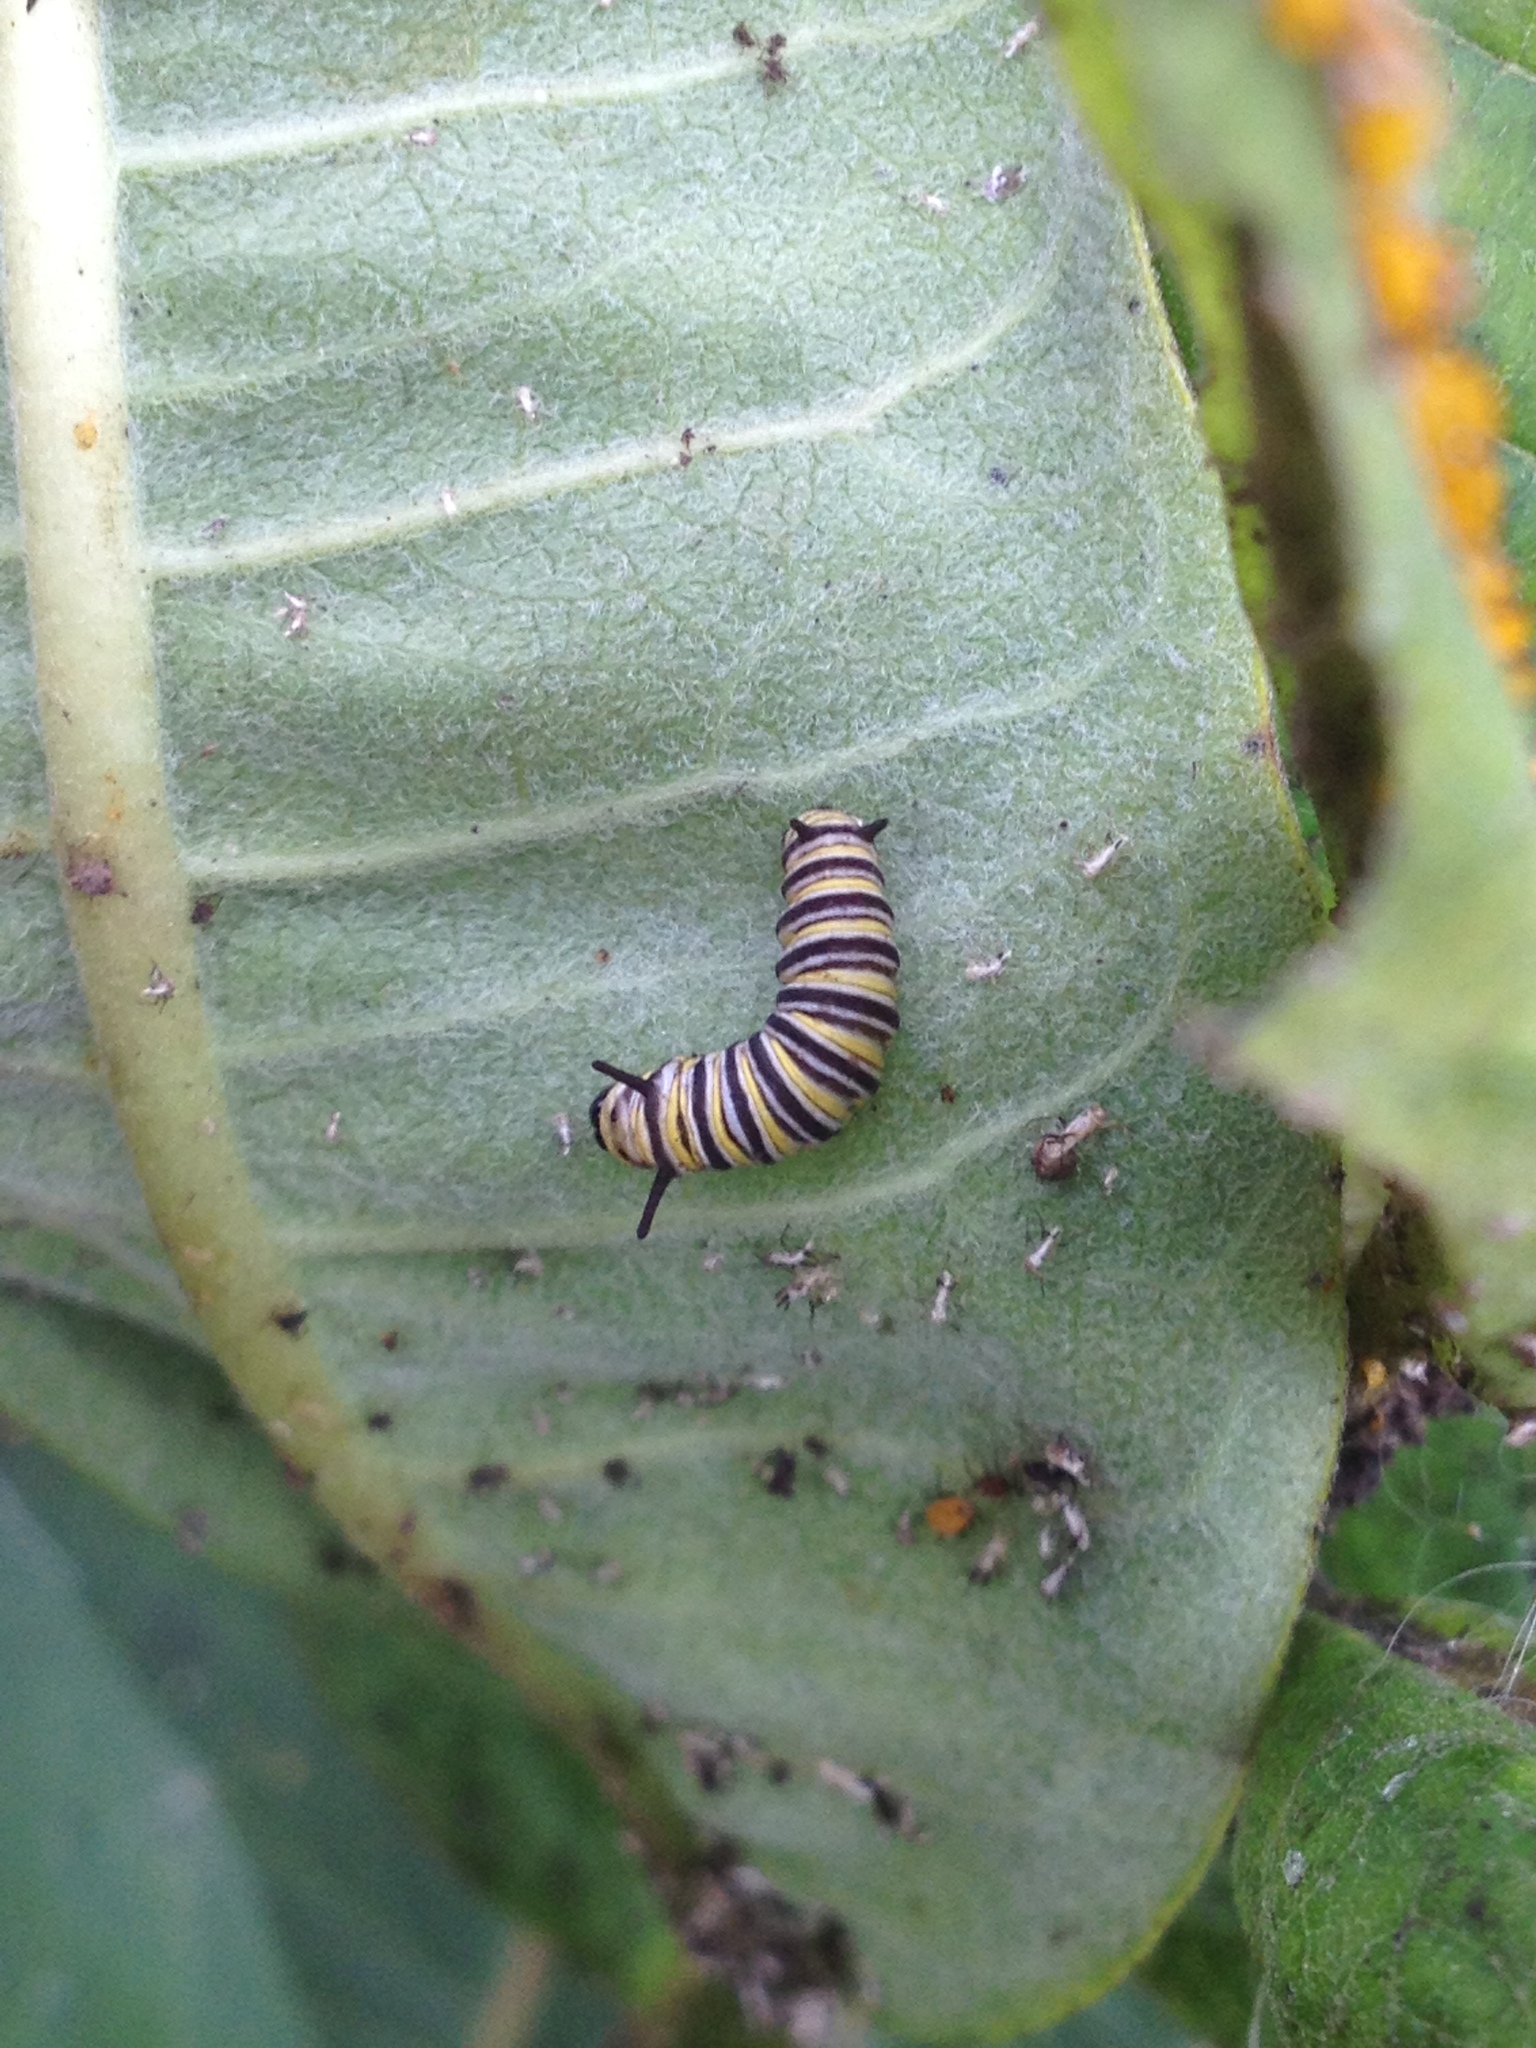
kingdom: Animalia
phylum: Arthropoda
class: Insecta
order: Lepidoptera
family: Nymphalidae
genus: Danaus
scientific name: Danaus plexippus
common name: Monarch
